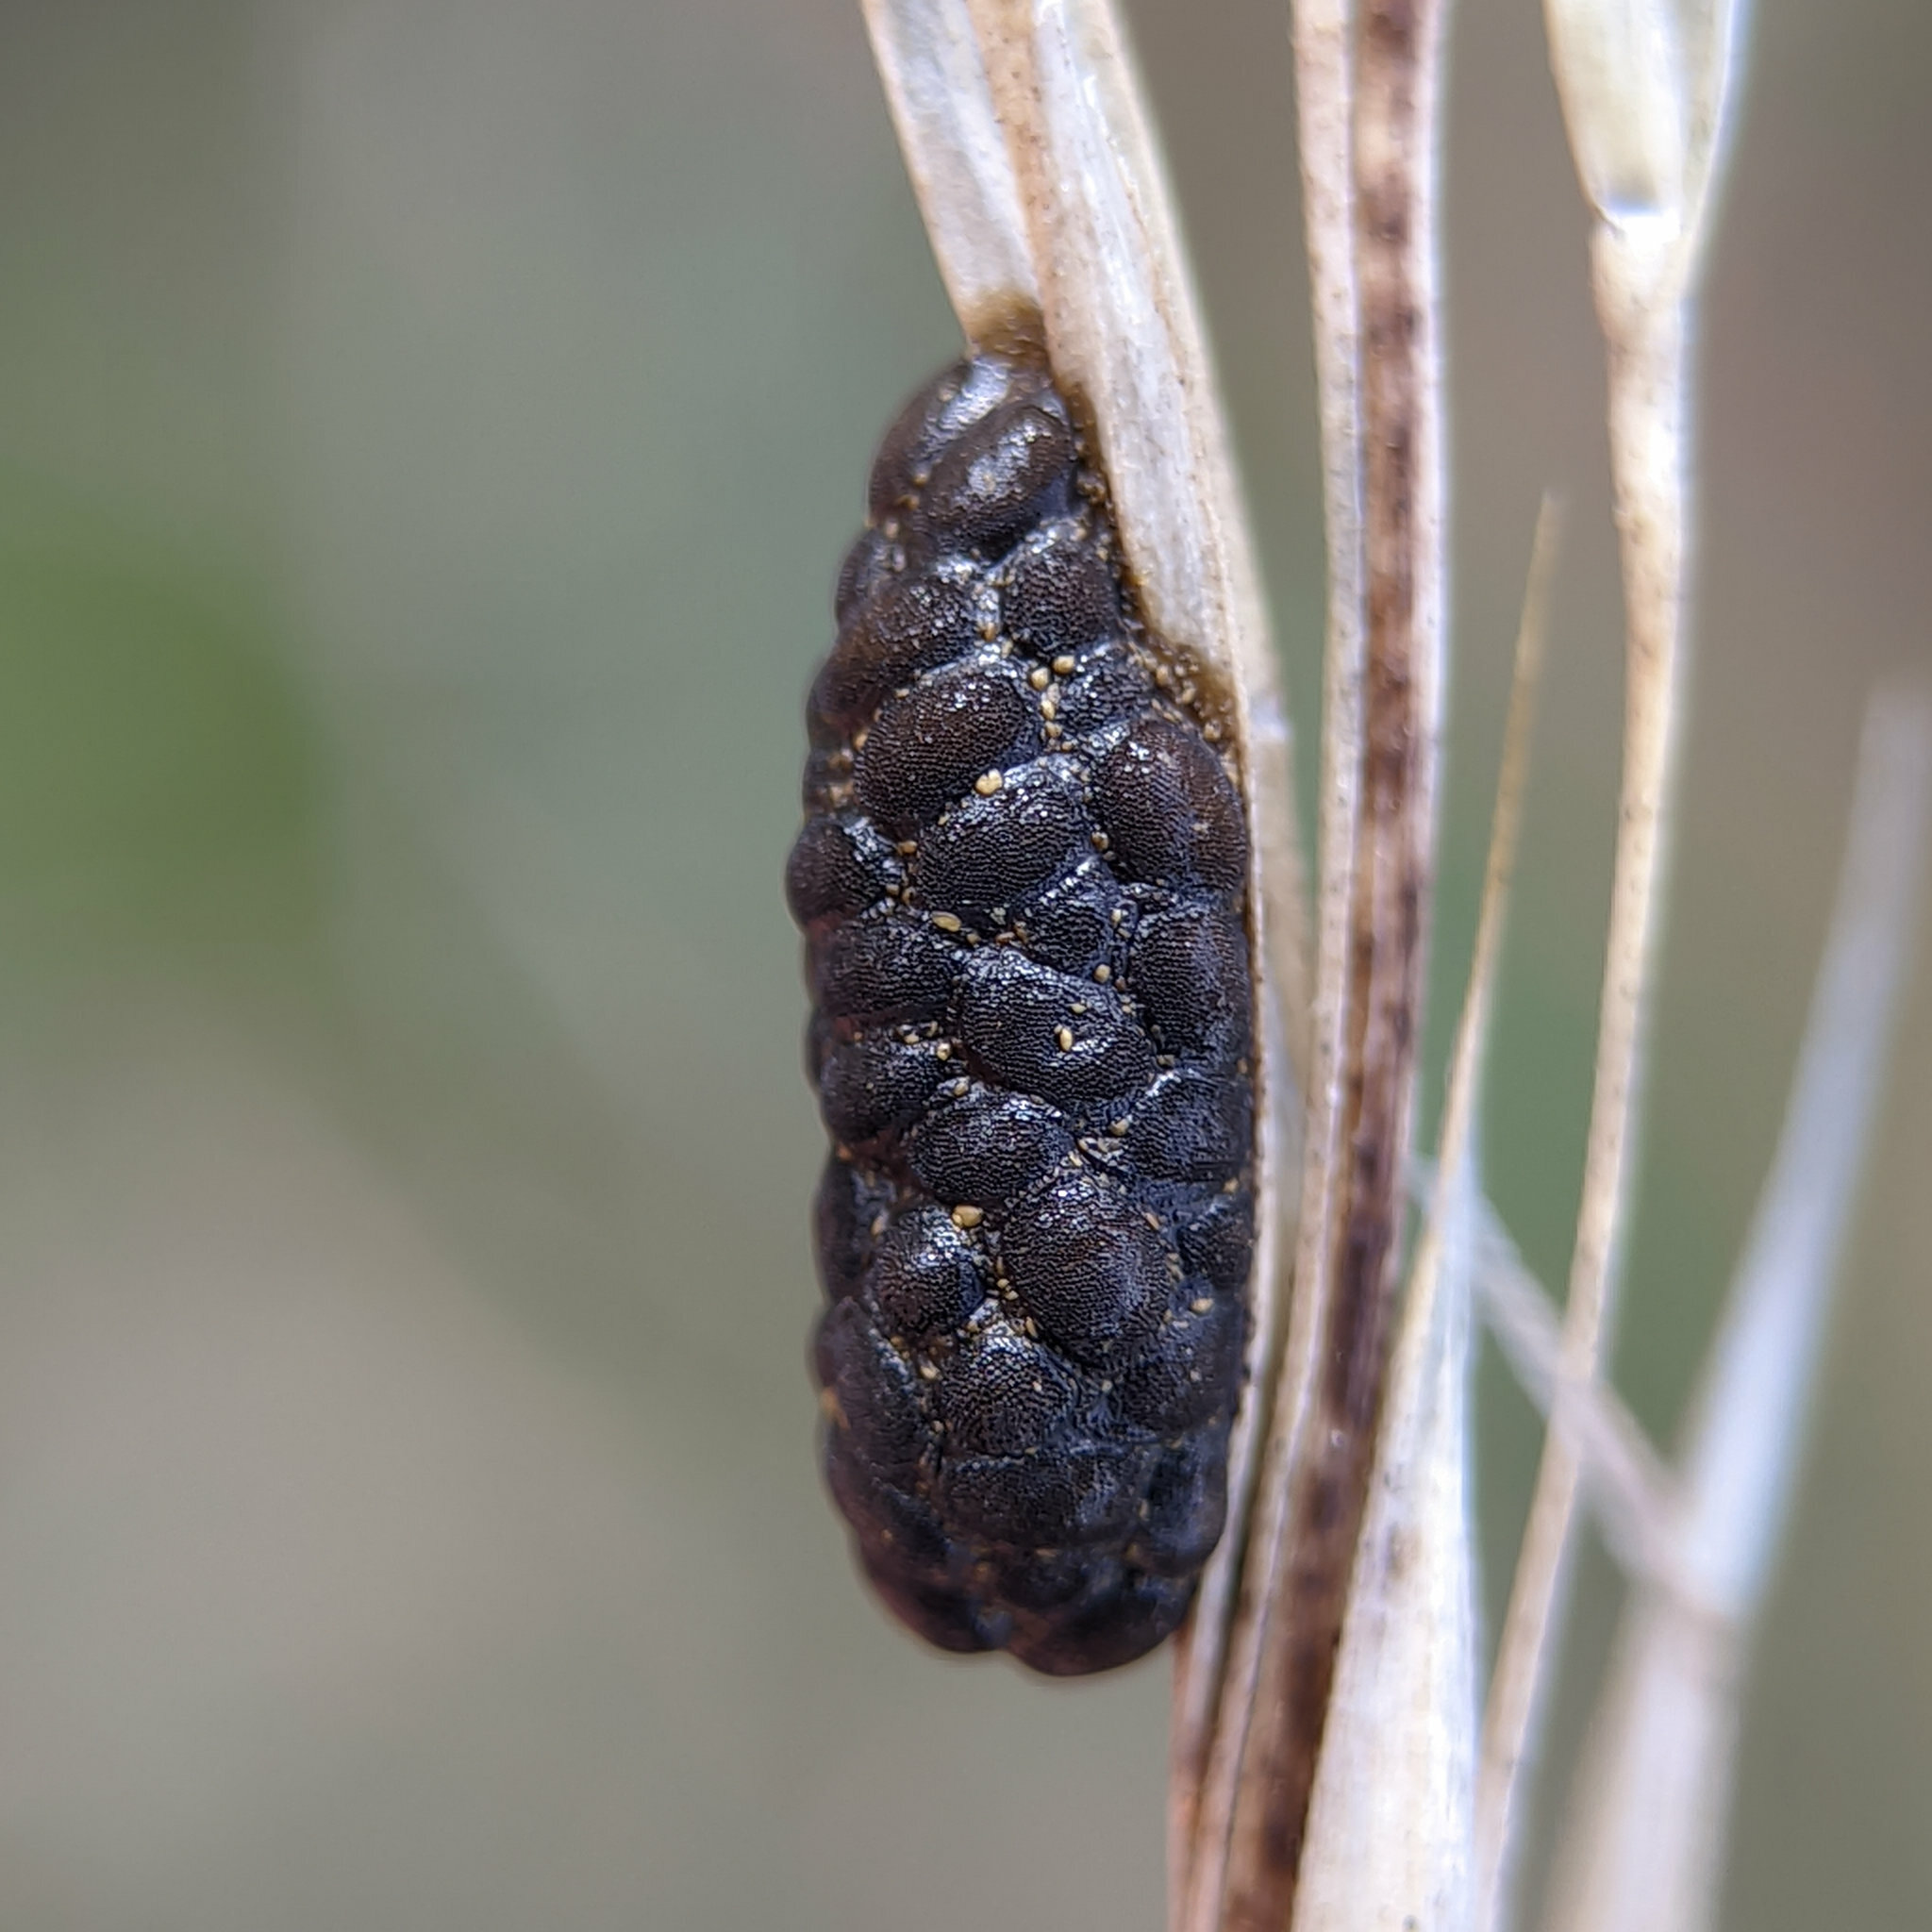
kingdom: Animalia
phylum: Arthropoda
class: Insecta
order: Coleoptera
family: Chrysomelidae
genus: Galeruca
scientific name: Galeruca tanaceti
